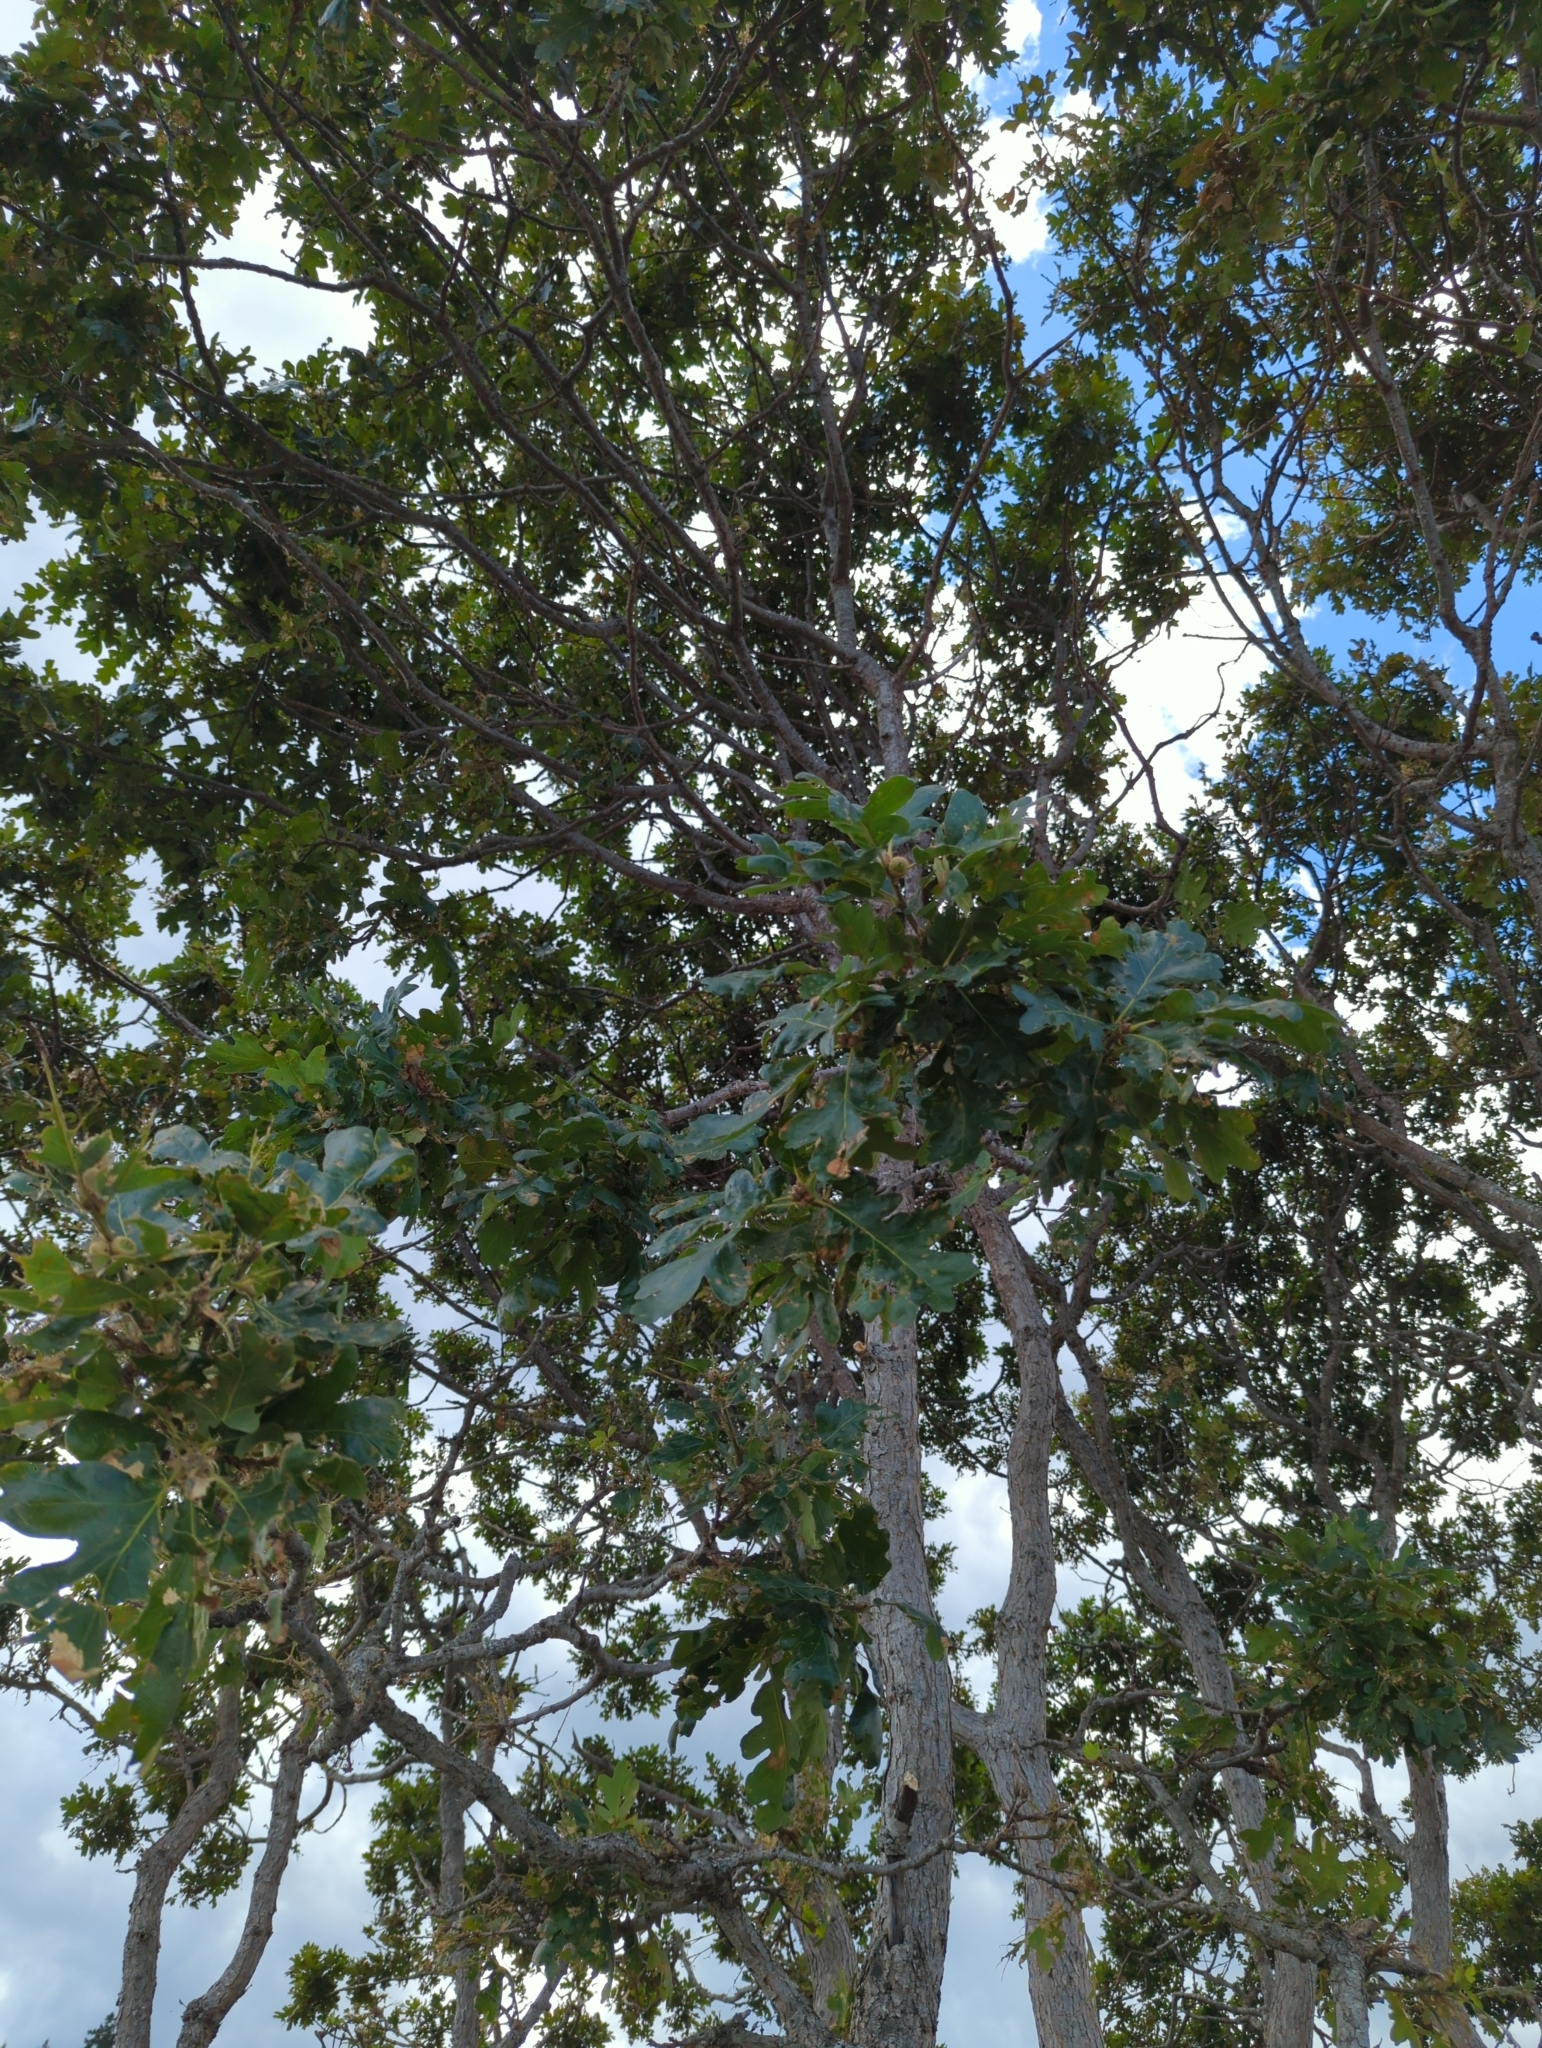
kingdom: Plantae
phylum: Tracheophyta
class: Magnoliopsida
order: Fagales
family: Fagaceae
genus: Quercus
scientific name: Quercus garryana
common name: Garry oak
